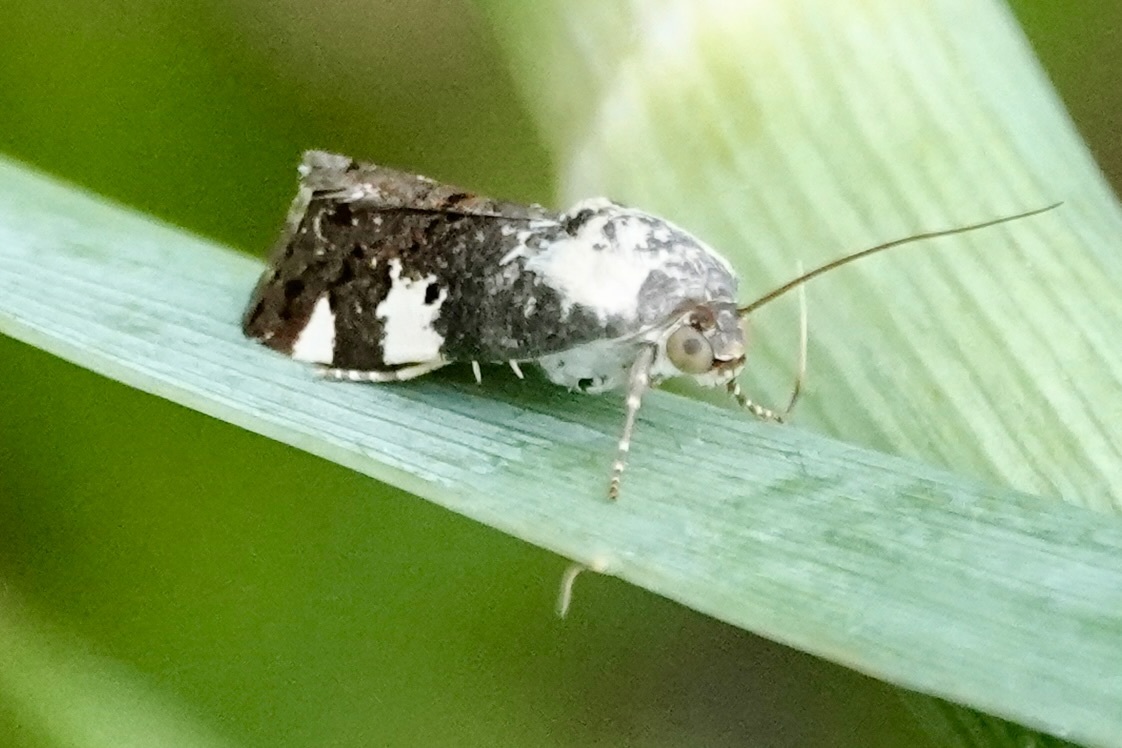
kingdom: Animalia
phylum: Arthropoda
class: Insecta
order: Lepidoptera
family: Noctuidae
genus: Acontia
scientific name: Acontia aprica
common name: Nun
